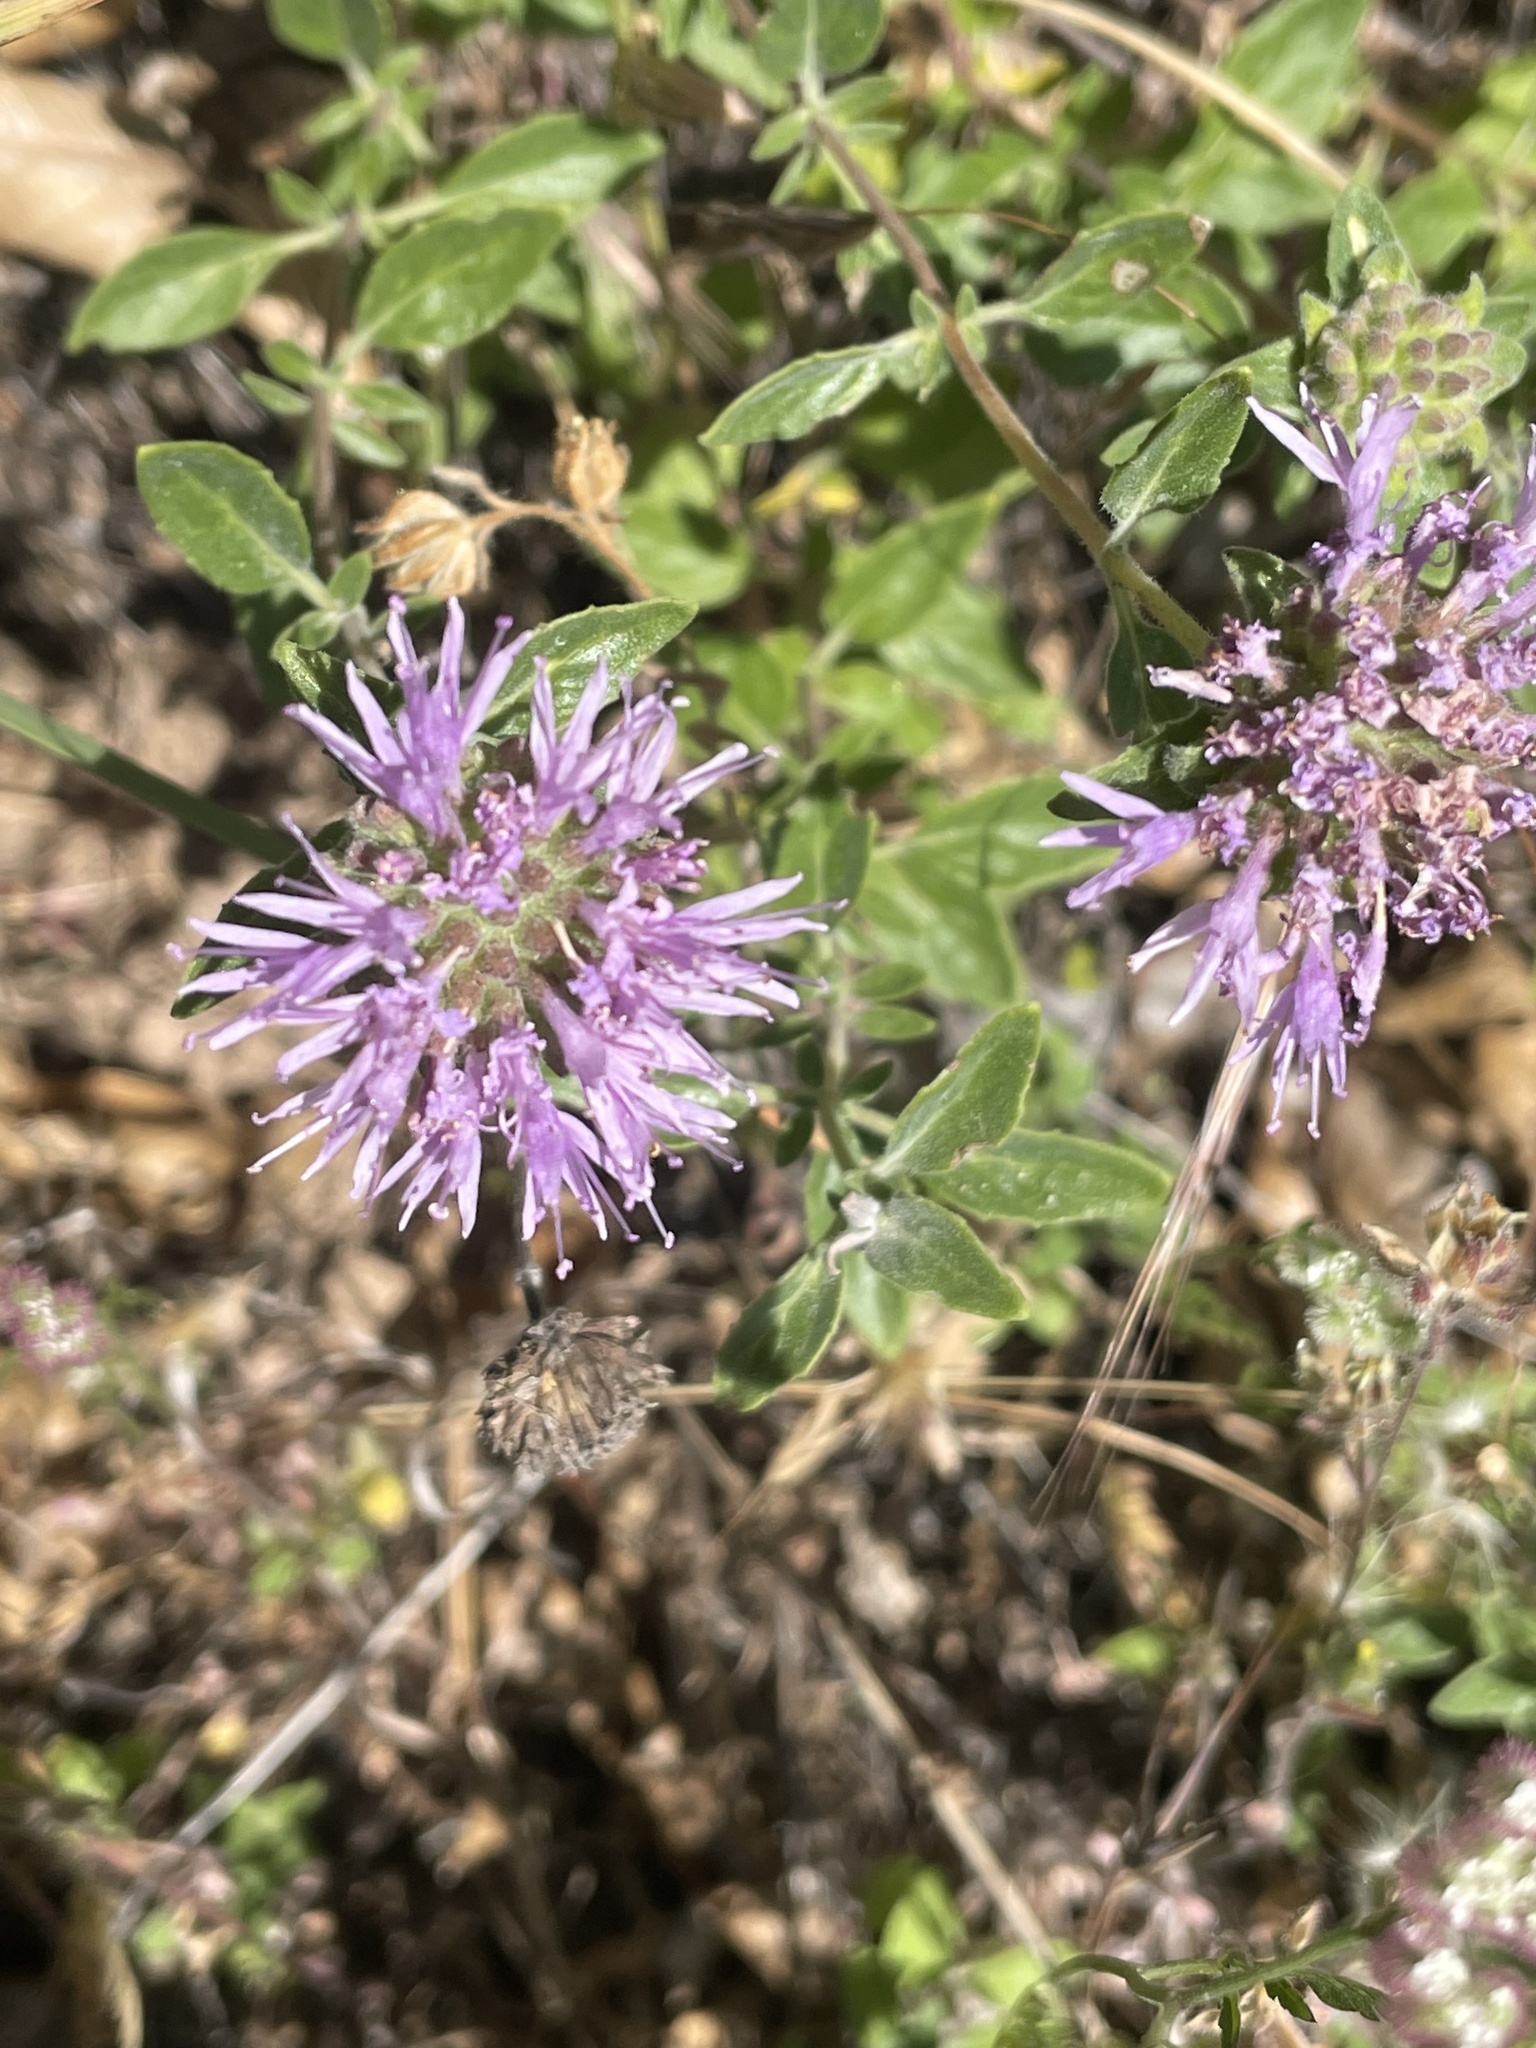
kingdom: Plantae
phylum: Tracheophyta
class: Magnoliopsida
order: Lamiales
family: Lamiaceae
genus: Monardella
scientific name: Monardella odoratissima
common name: Pacific monardella
